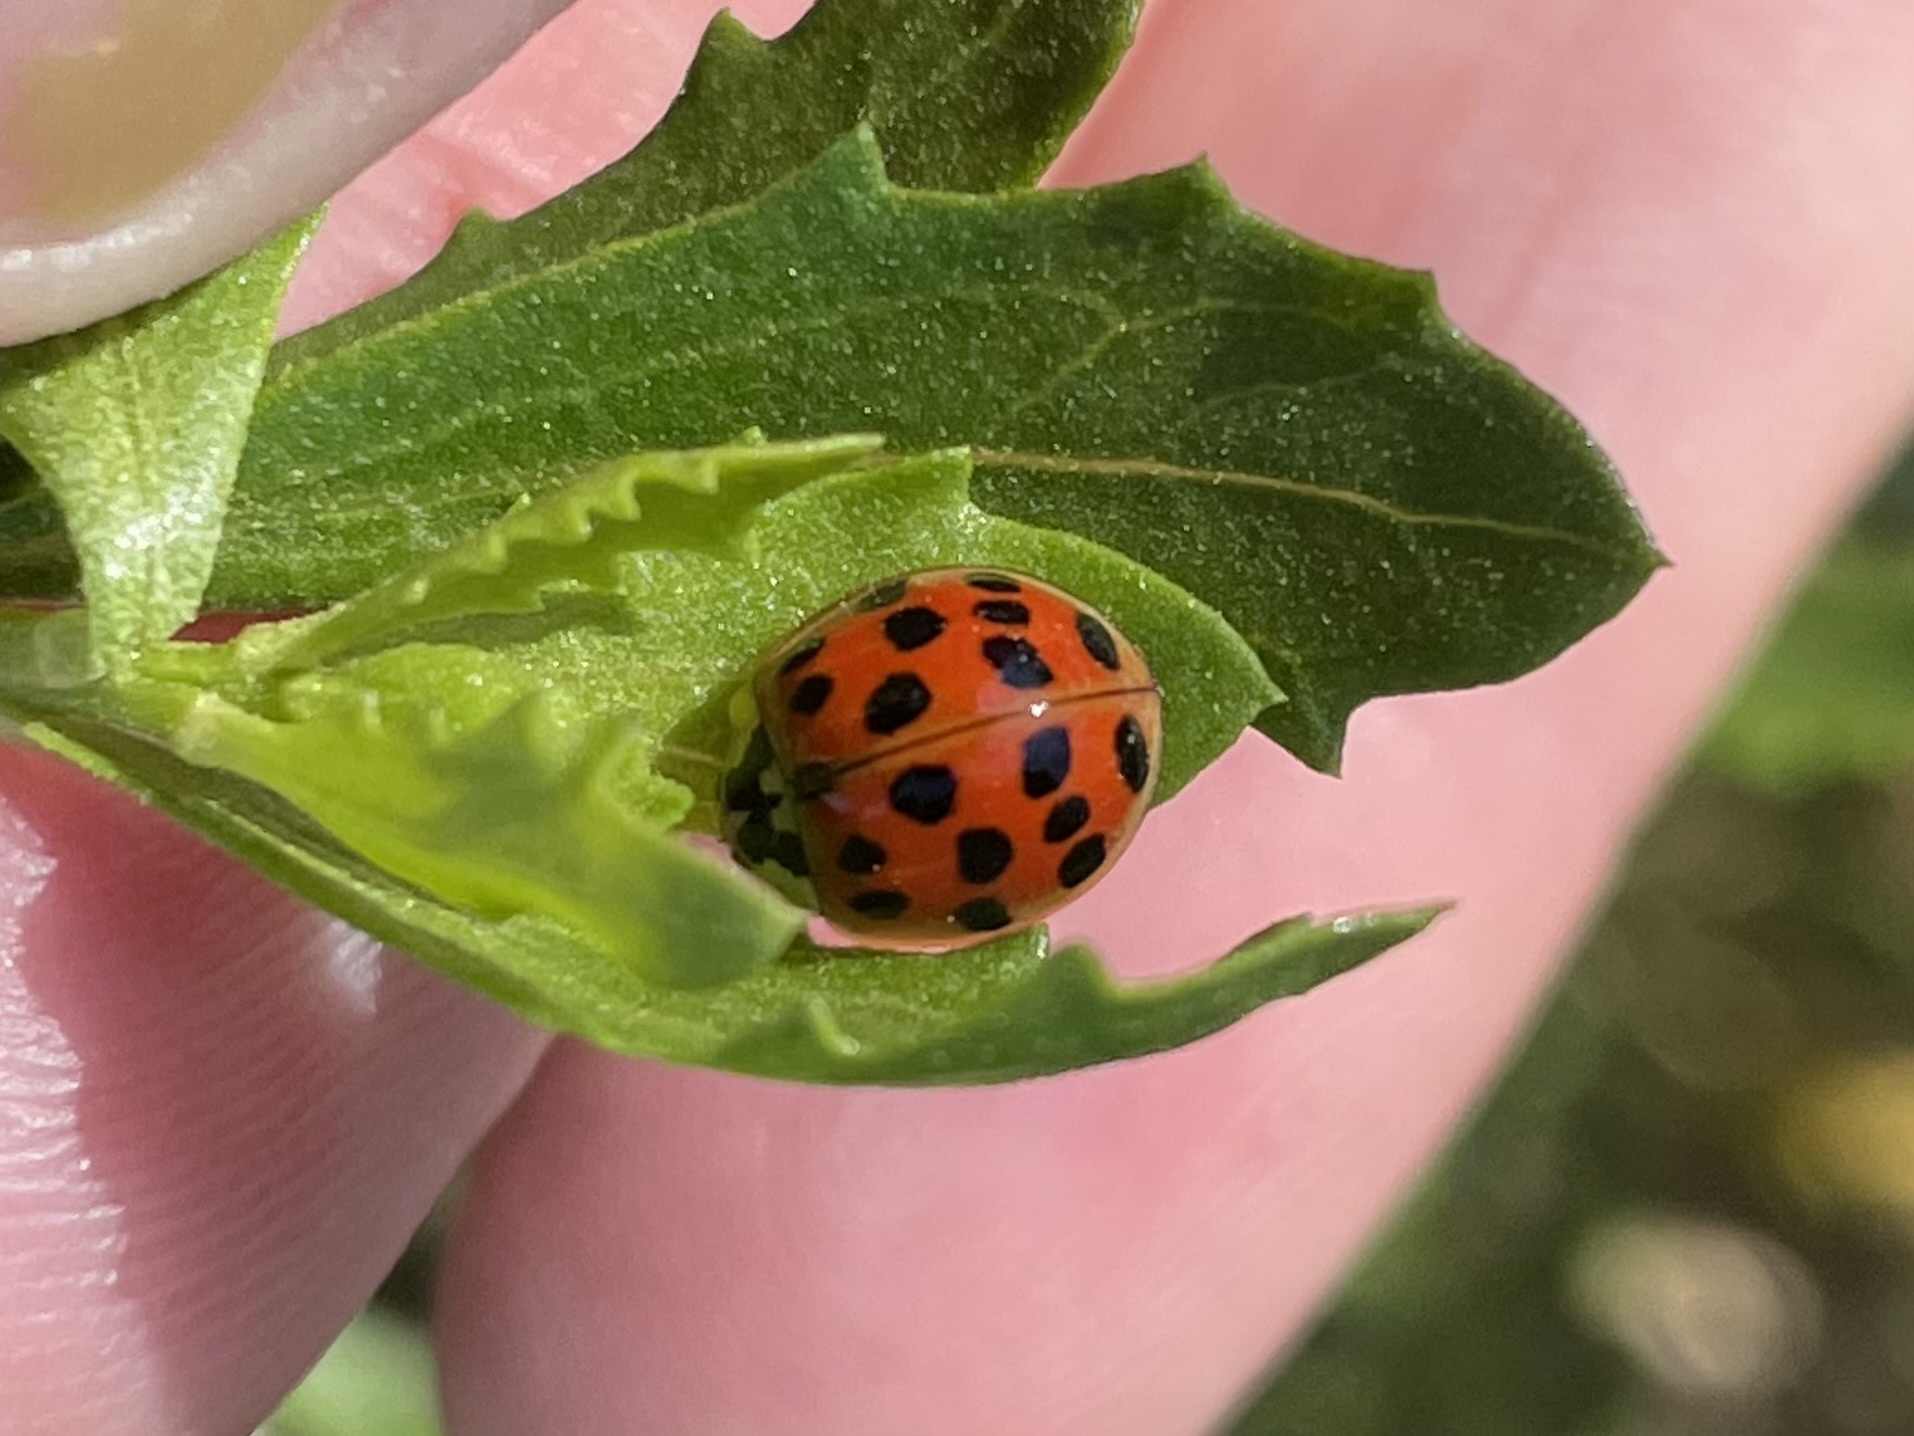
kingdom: Animalia
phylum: Arthropoda
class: Insecta
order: Coleoptera
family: Coccinellidae
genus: Harmonia
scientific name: Harmonia axyridis
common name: Harlequin ladybird
